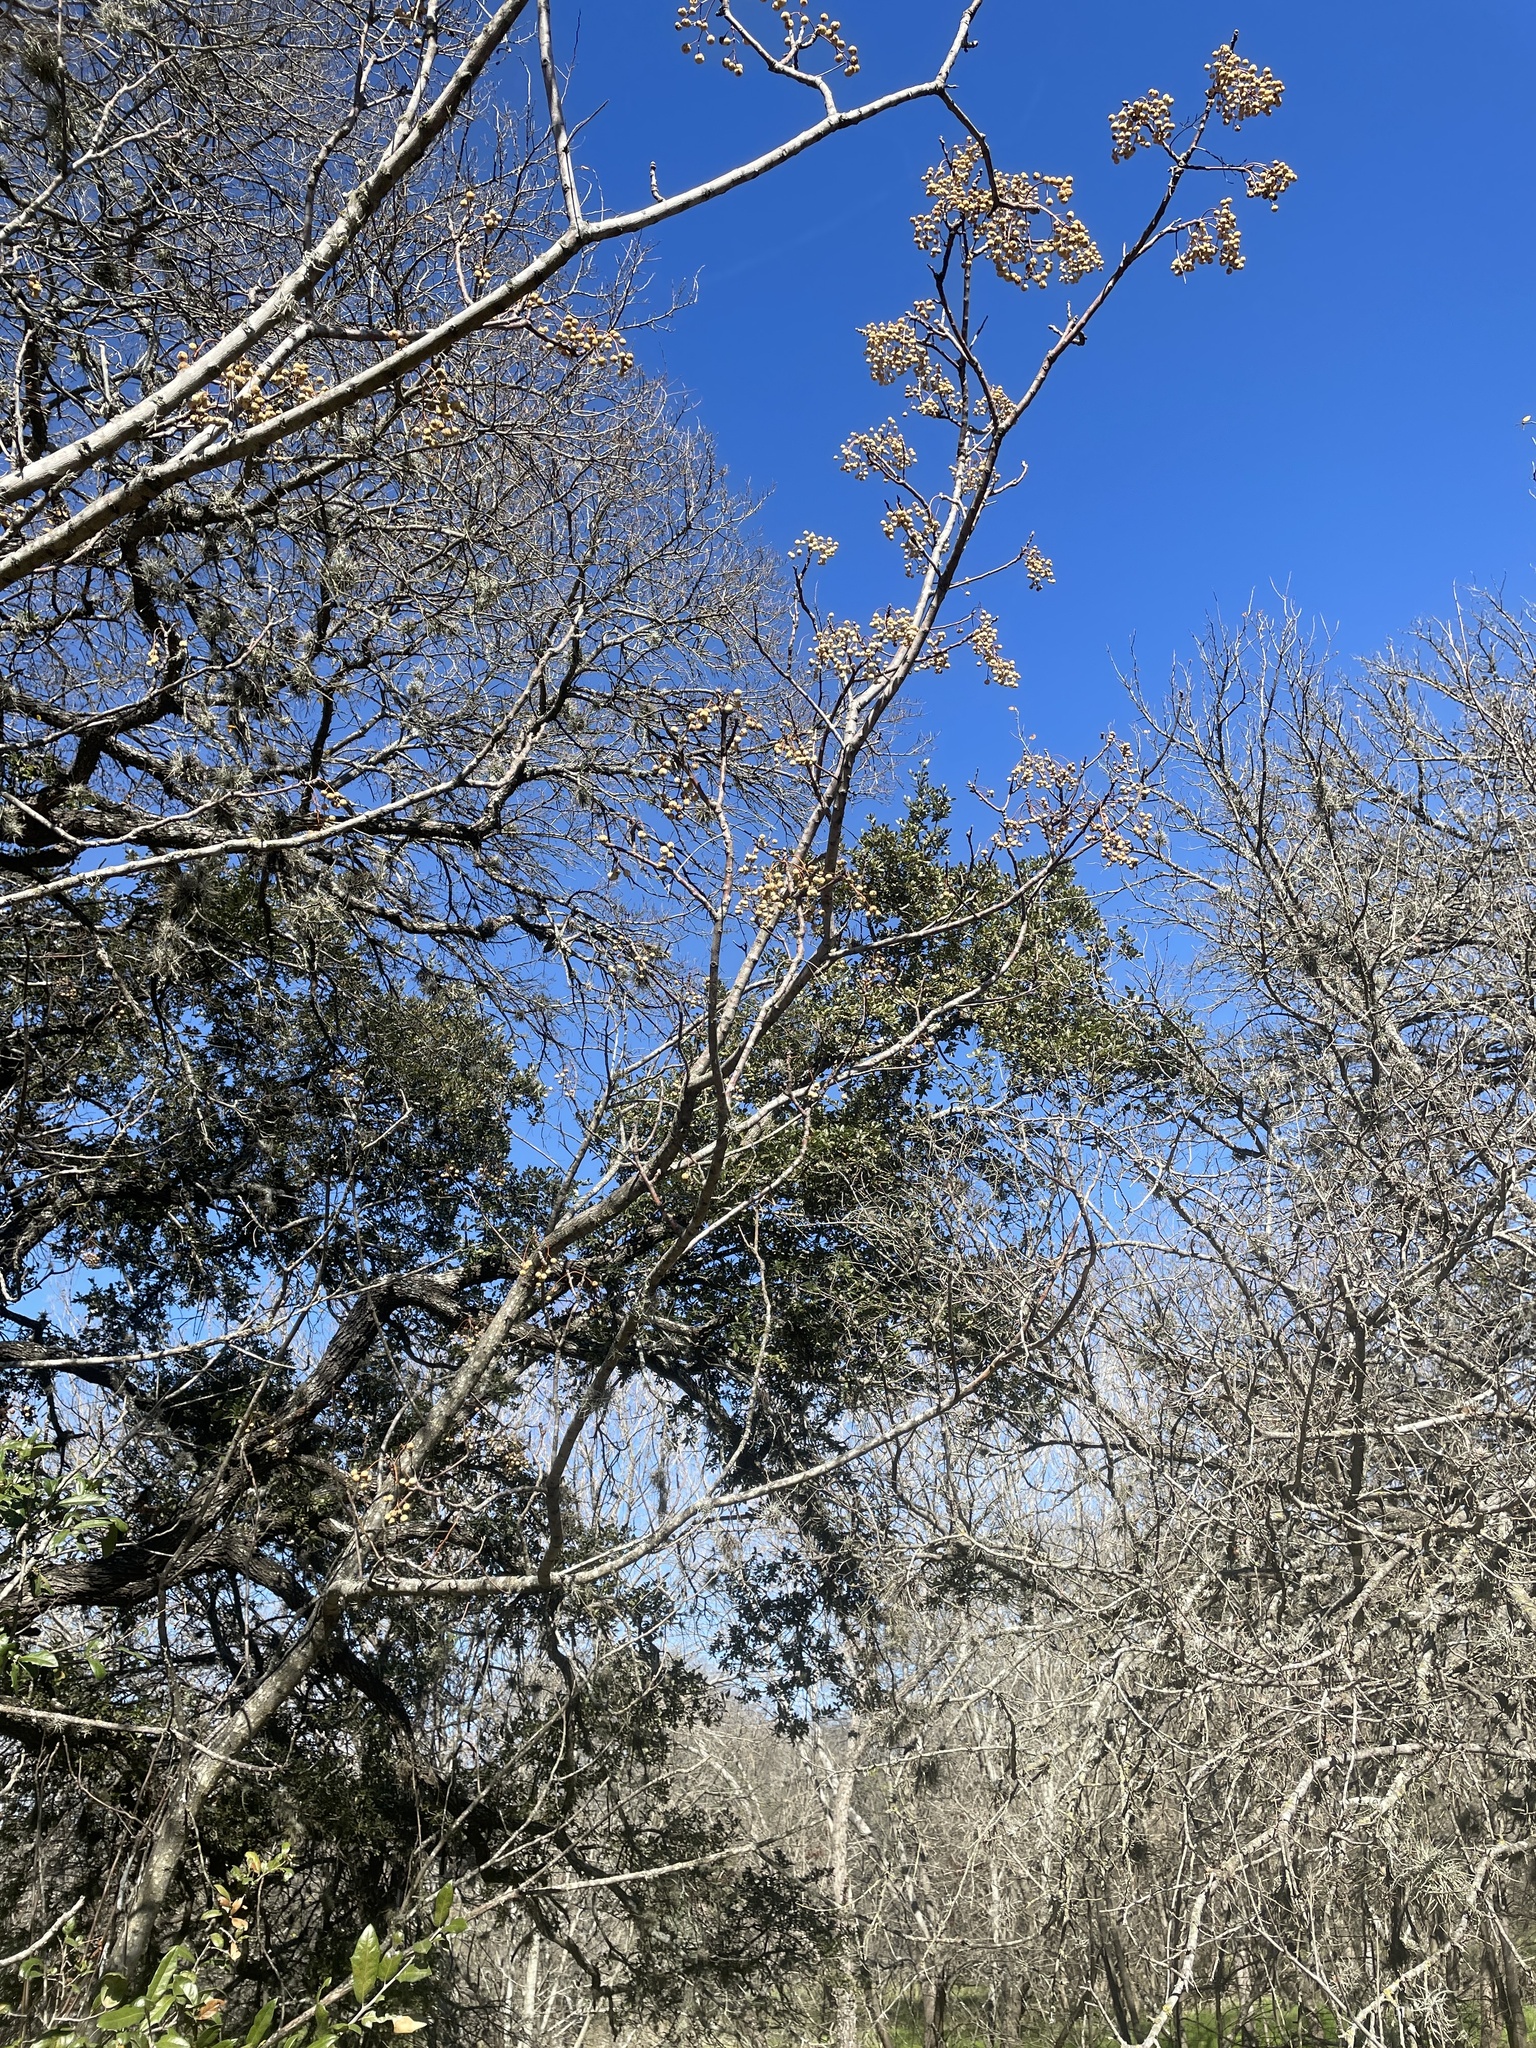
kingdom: Plantae
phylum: Tracheophyta
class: Magnoliopsida
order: Sapindales
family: Meliaceae
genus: Melia
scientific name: Melia azedarach
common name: Chinaberrytree
